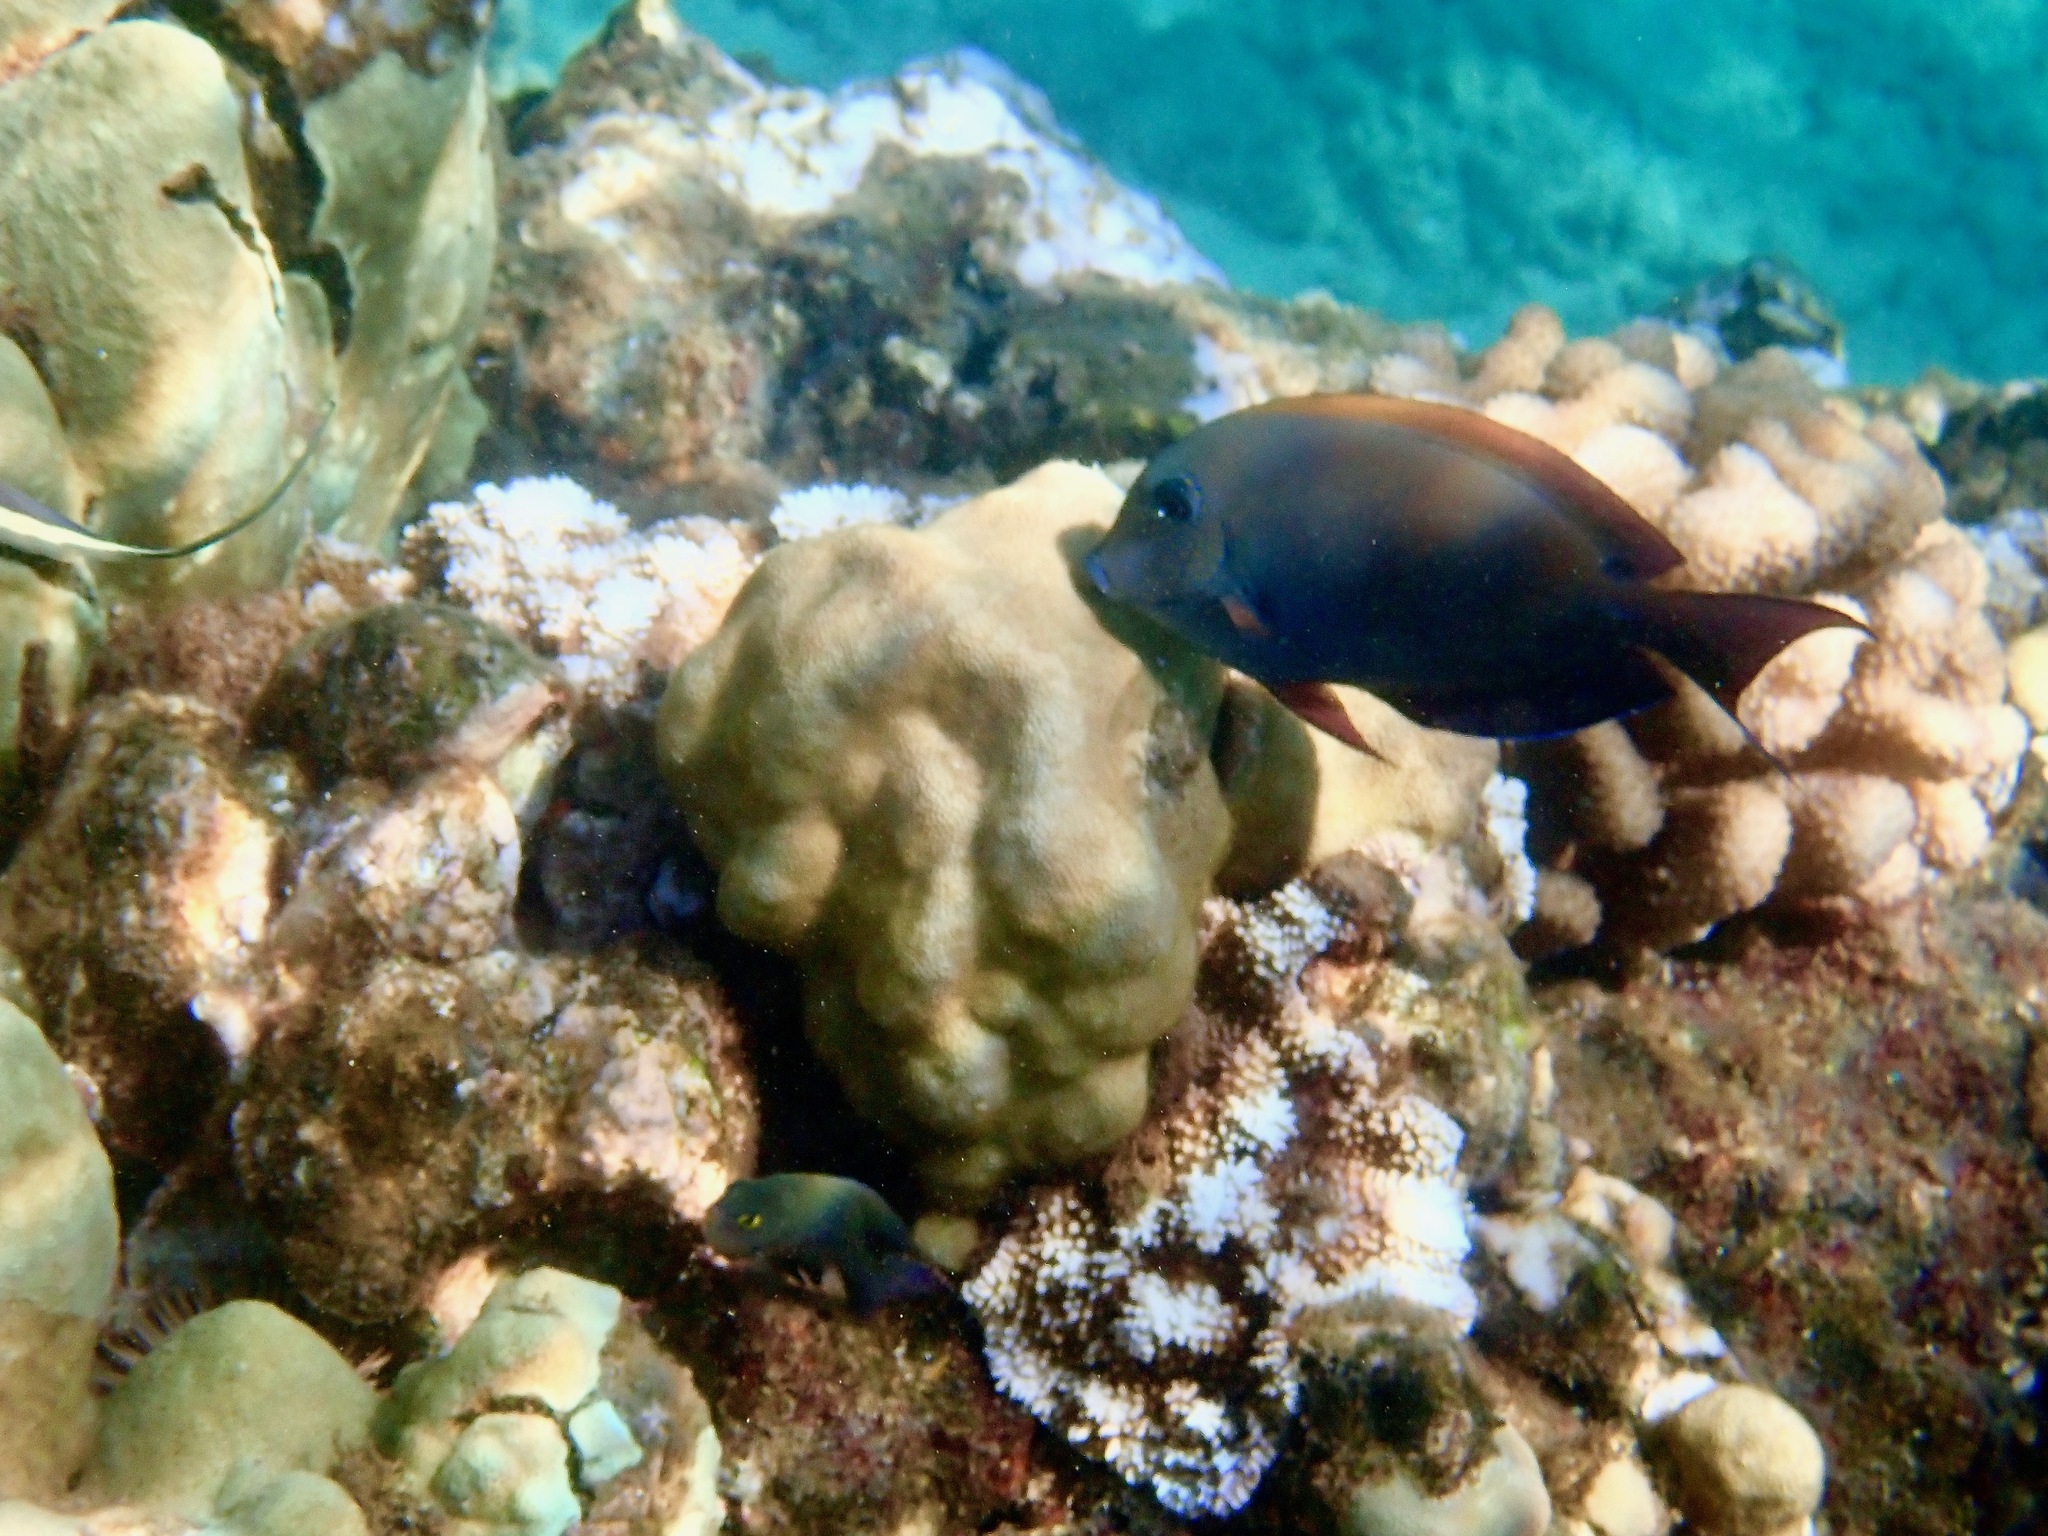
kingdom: Animalia
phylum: Chordata
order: Perciformes
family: Acanthuridae
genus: Acanthurus
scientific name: Acanthurus nigrofuscus
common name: Blackspot surgeonfish
